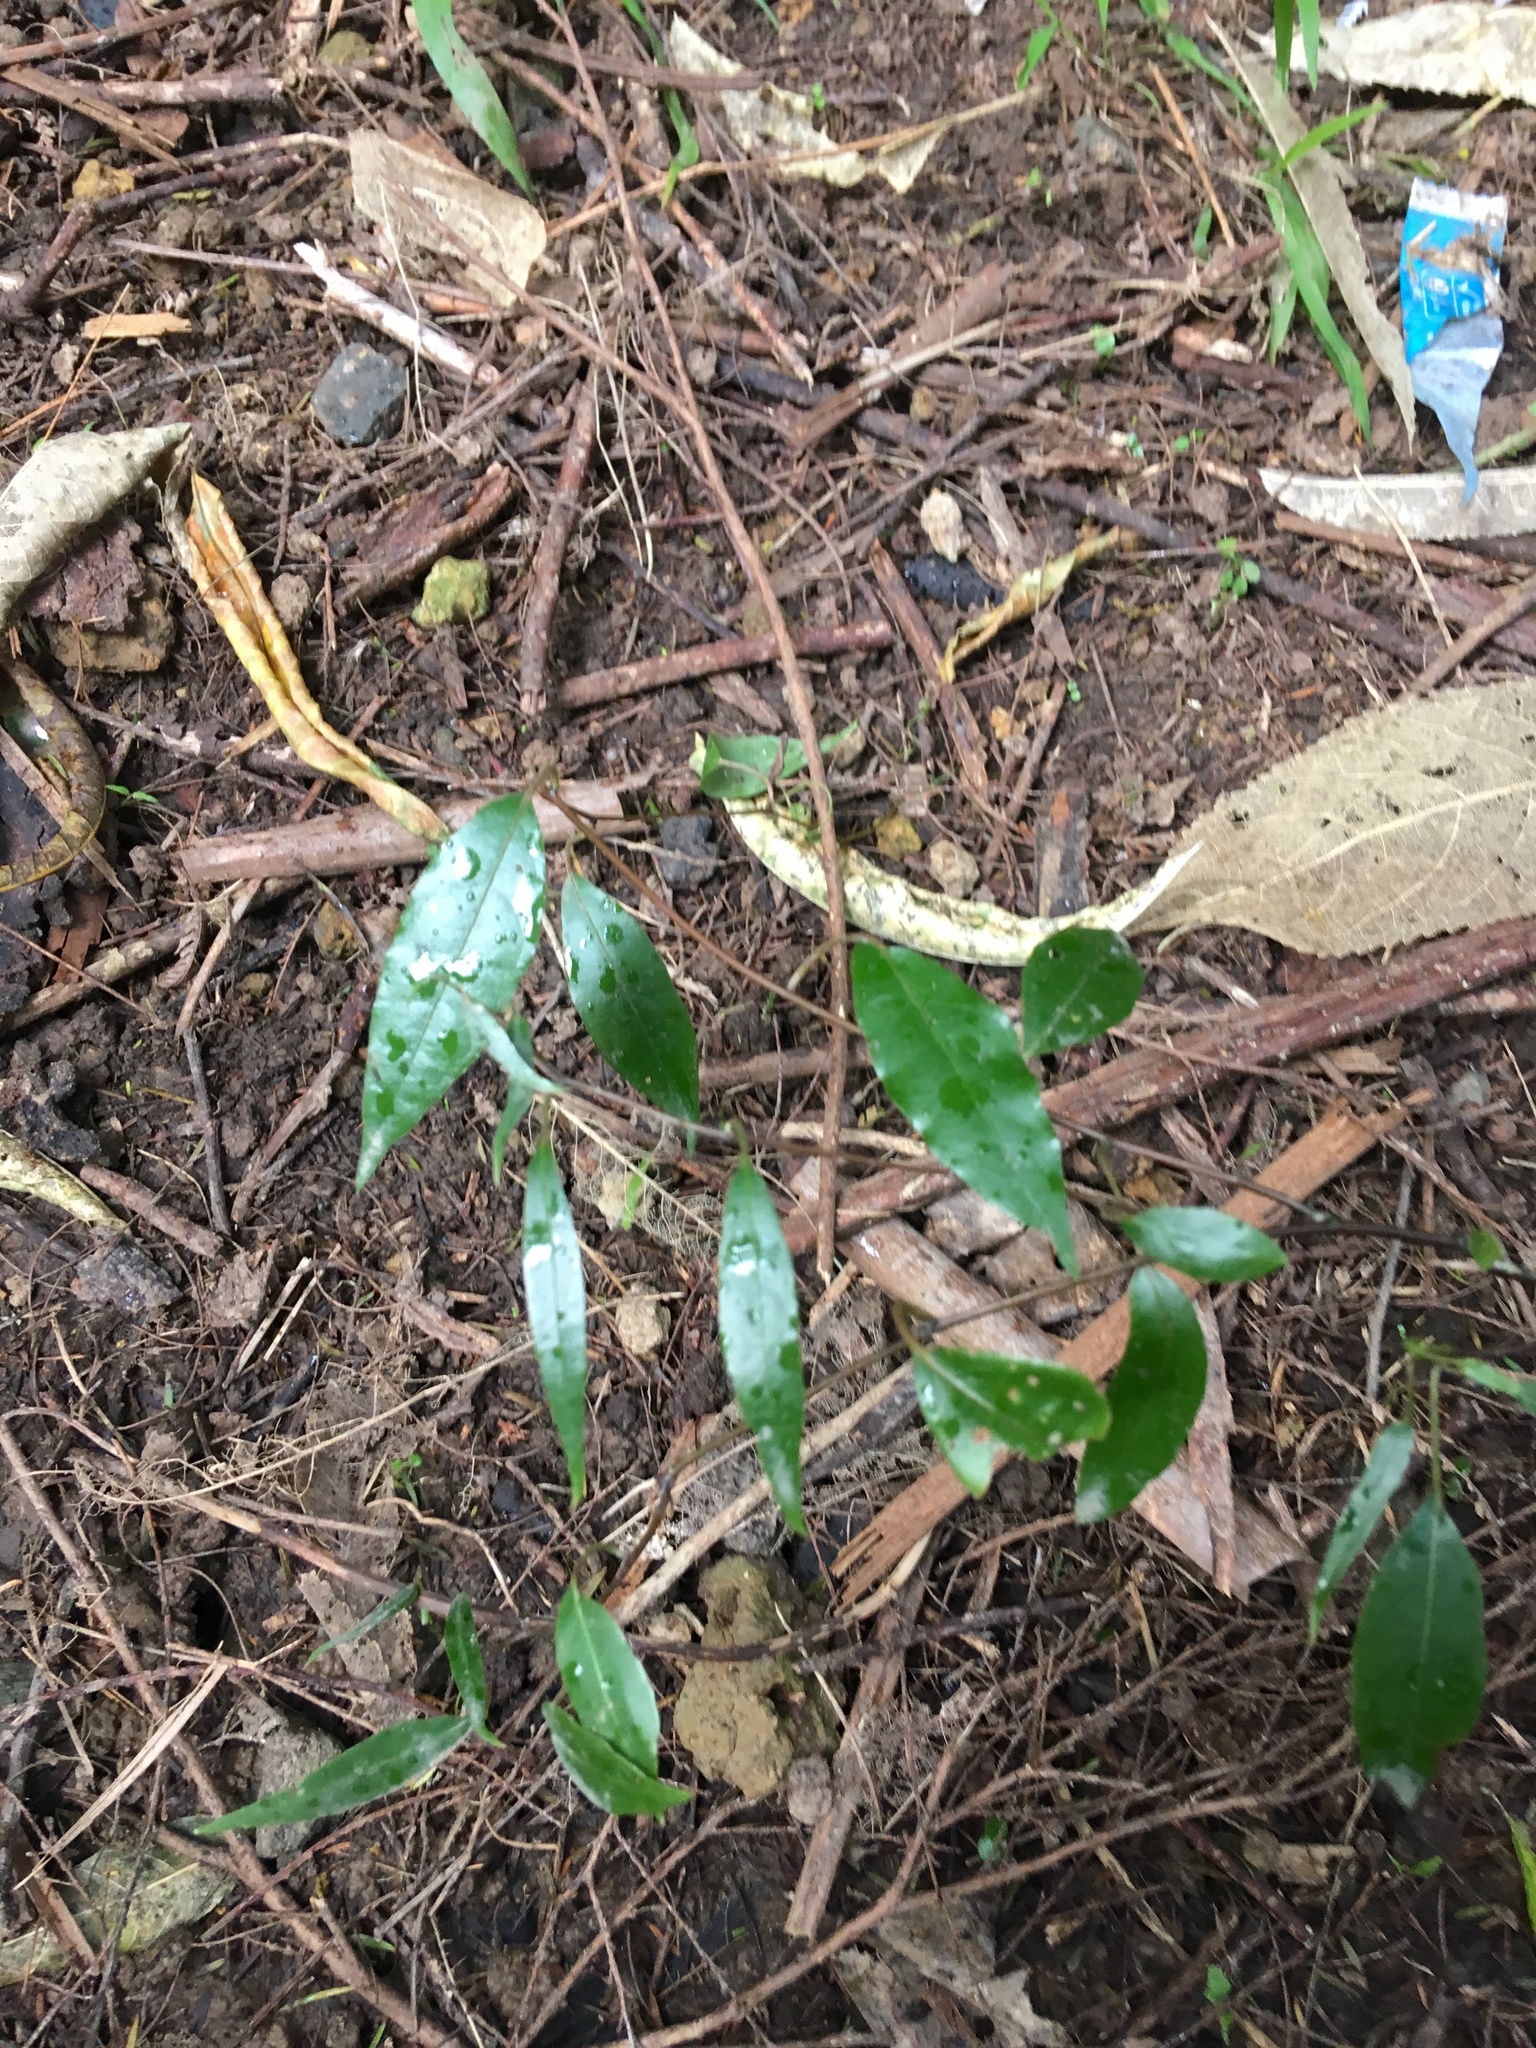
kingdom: Plantae
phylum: Tracheophyta
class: Magnoliopsida
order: Malpighiales
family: Passifloraceae
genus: Passiflora
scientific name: Passiflora tetrandra
